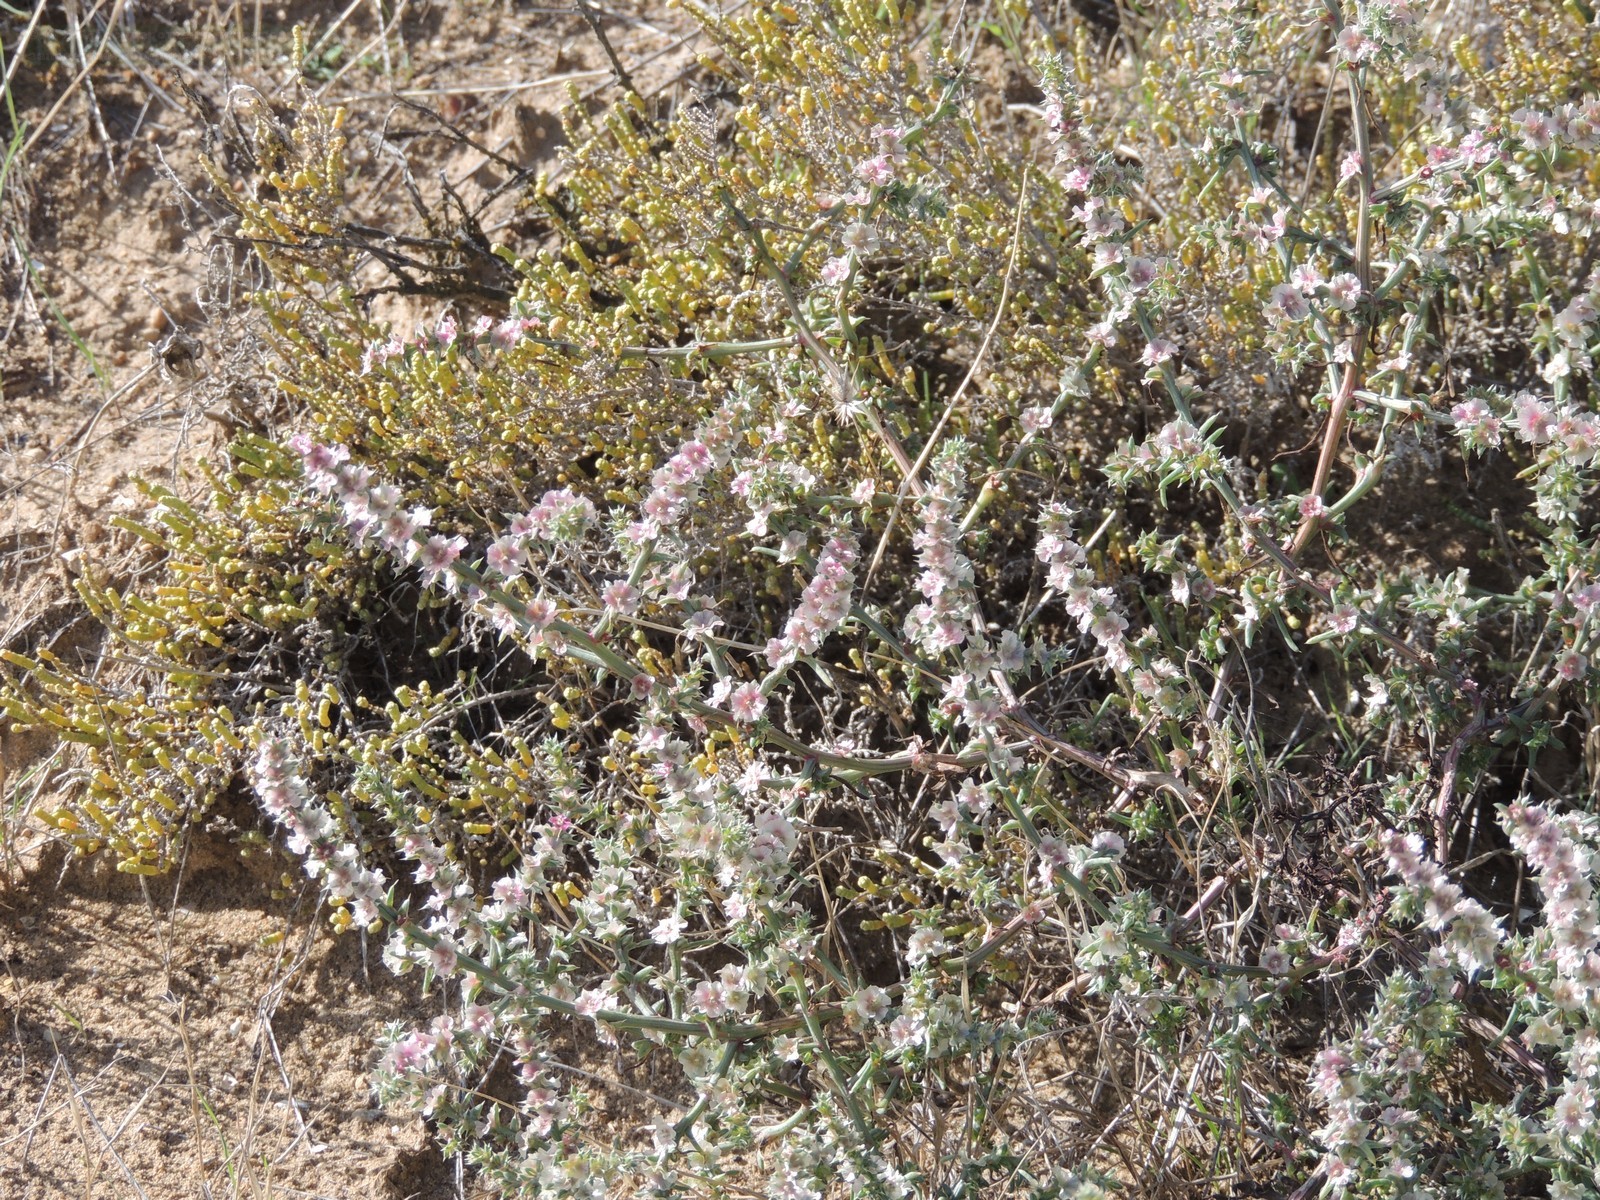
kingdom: Plantae
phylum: Tracheophyta
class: Magnoliopsida
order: Caryophyllales
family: Amaranthaceae
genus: Salsola
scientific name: Salsola paulsenii
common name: Barbwire russian thistle
